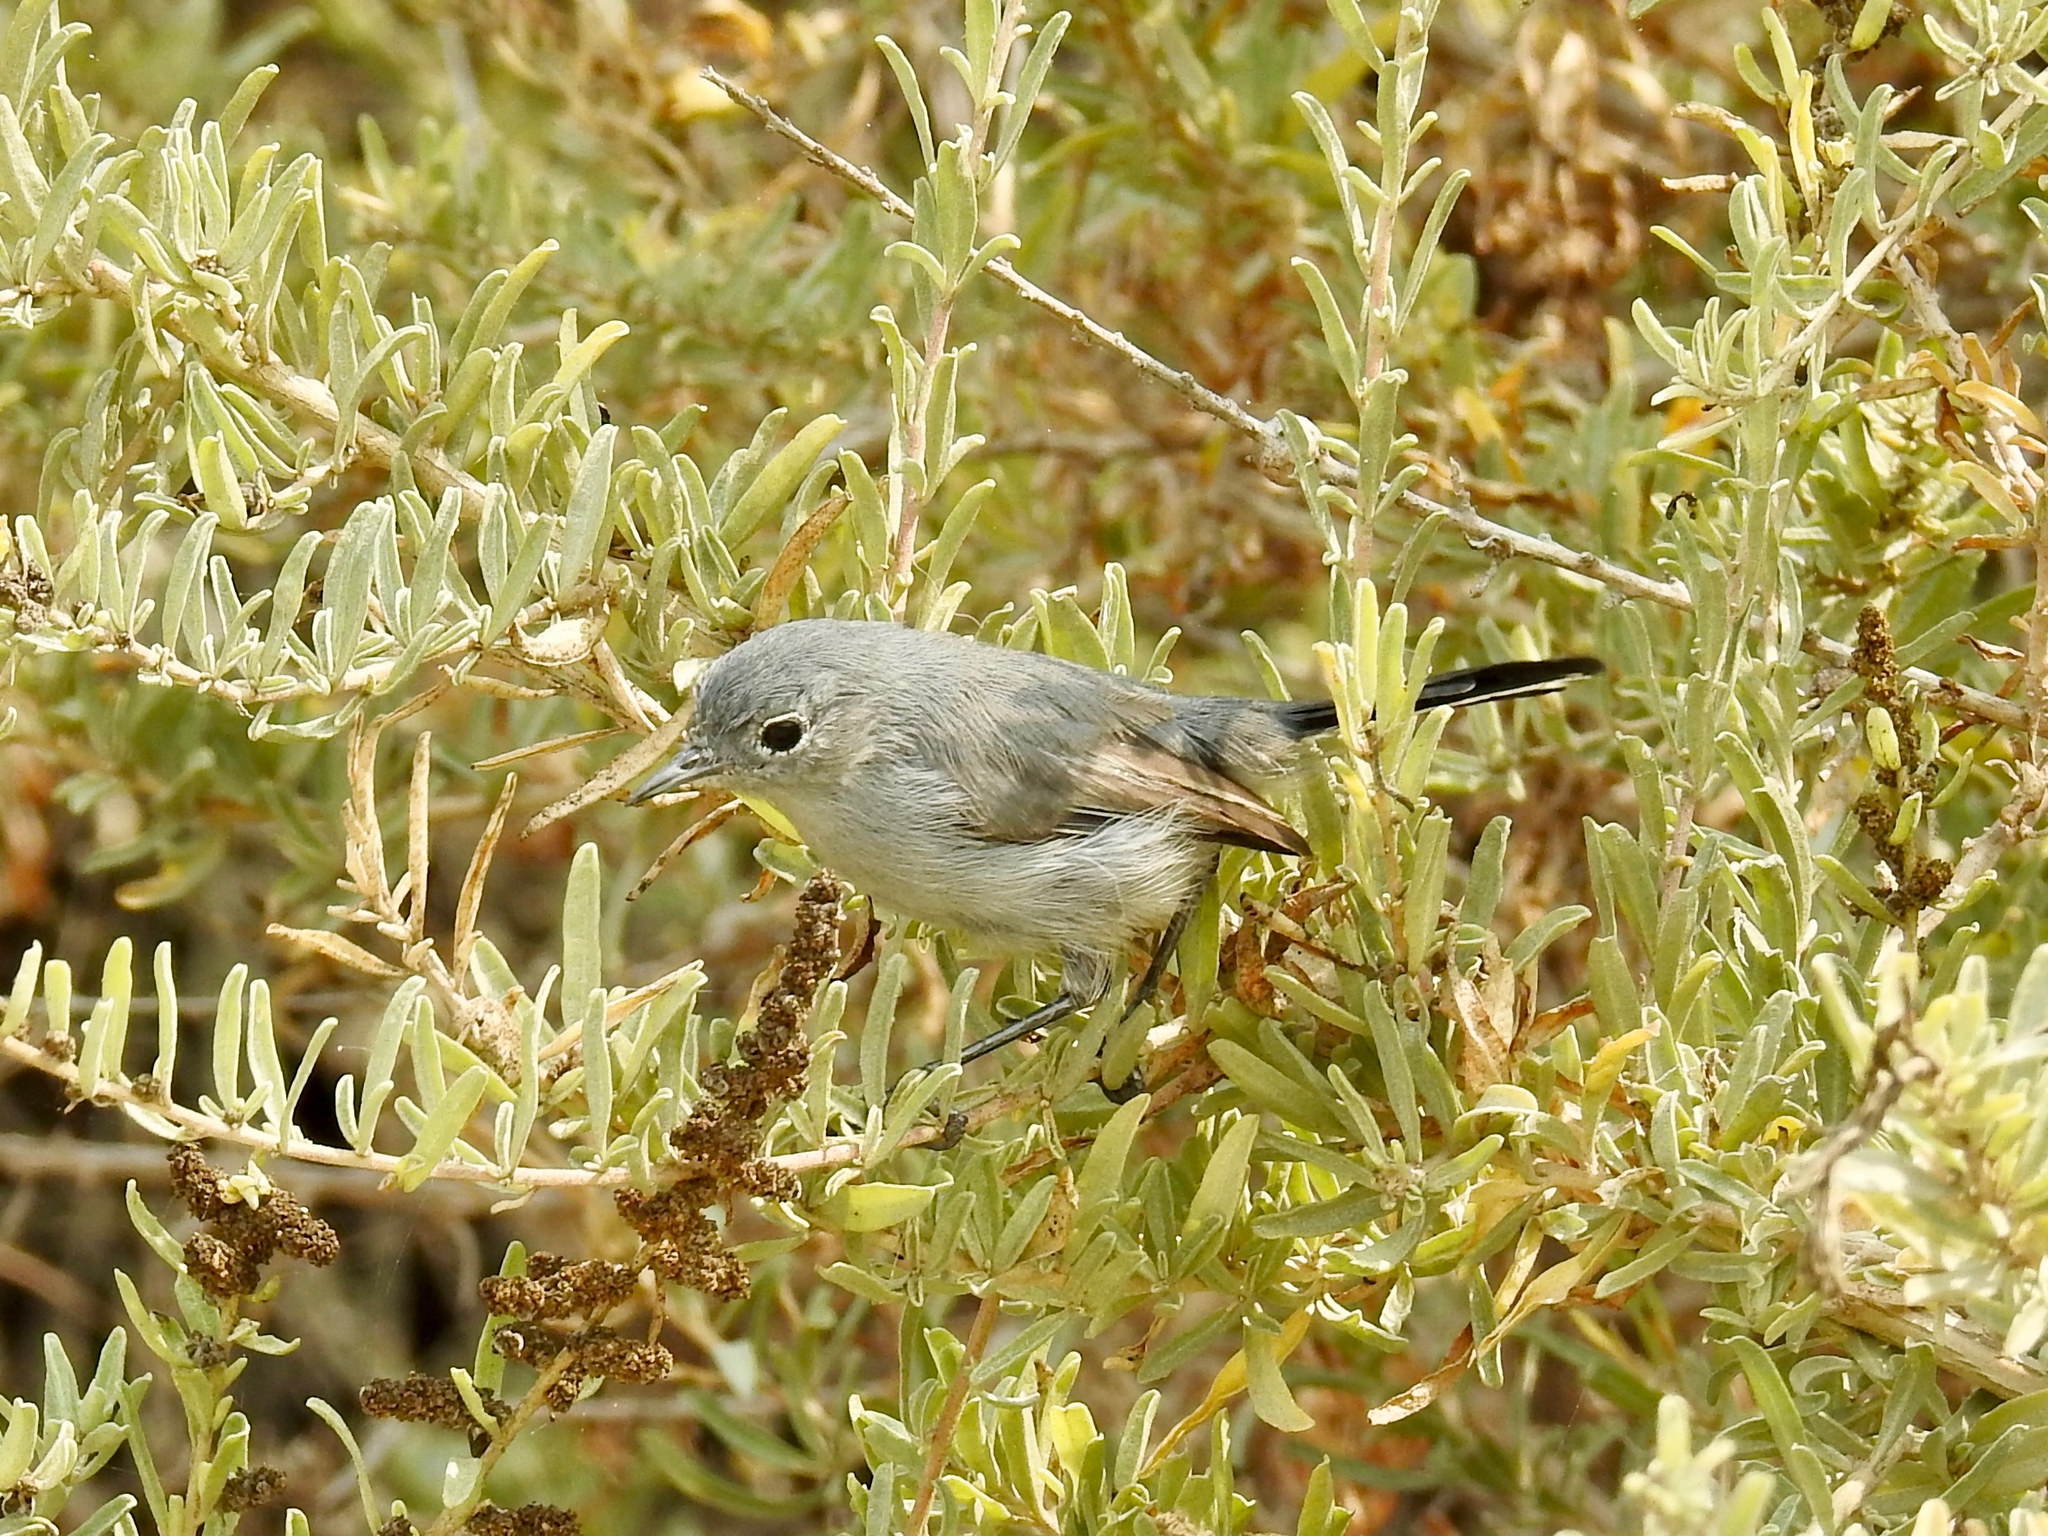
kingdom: Animalia
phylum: Chordata
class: Aves
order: Passeriformes
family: Polioptilidae
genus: Polioptila
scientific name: Polioptila californica
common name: California gnatcatcher
